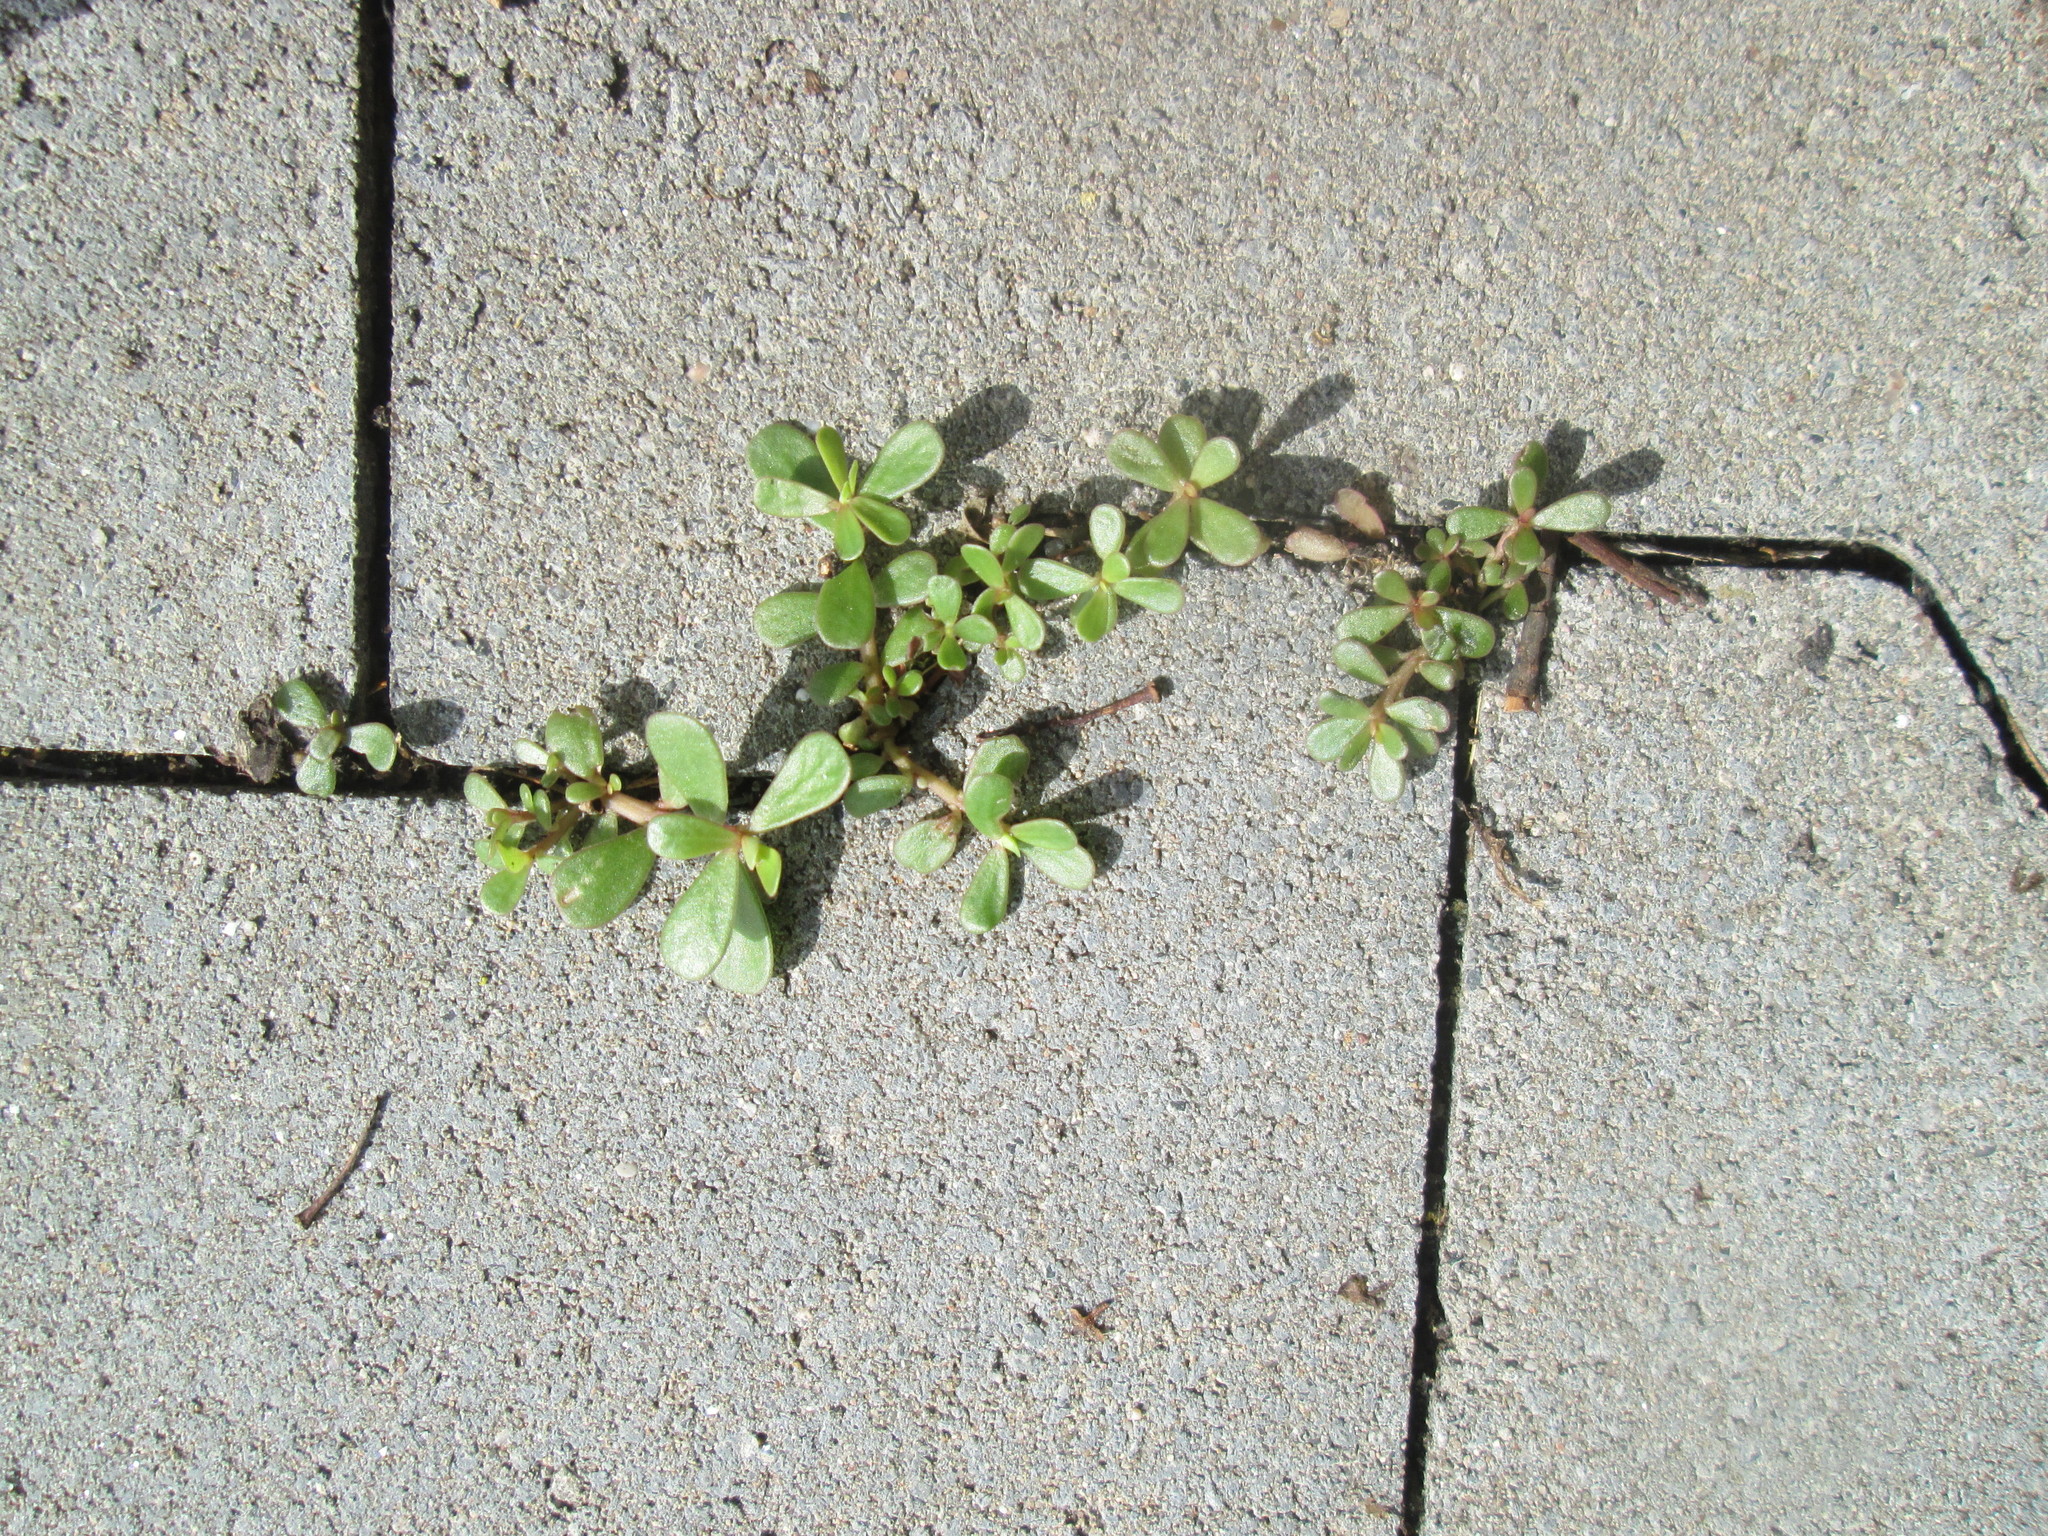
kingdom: Plantae
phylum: Tracheophyta
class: Magnoliopsida
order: Caryophyllales
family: Portulacaceae
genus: Portulaca
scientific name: Portulaca oleracea
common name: Common purslane
